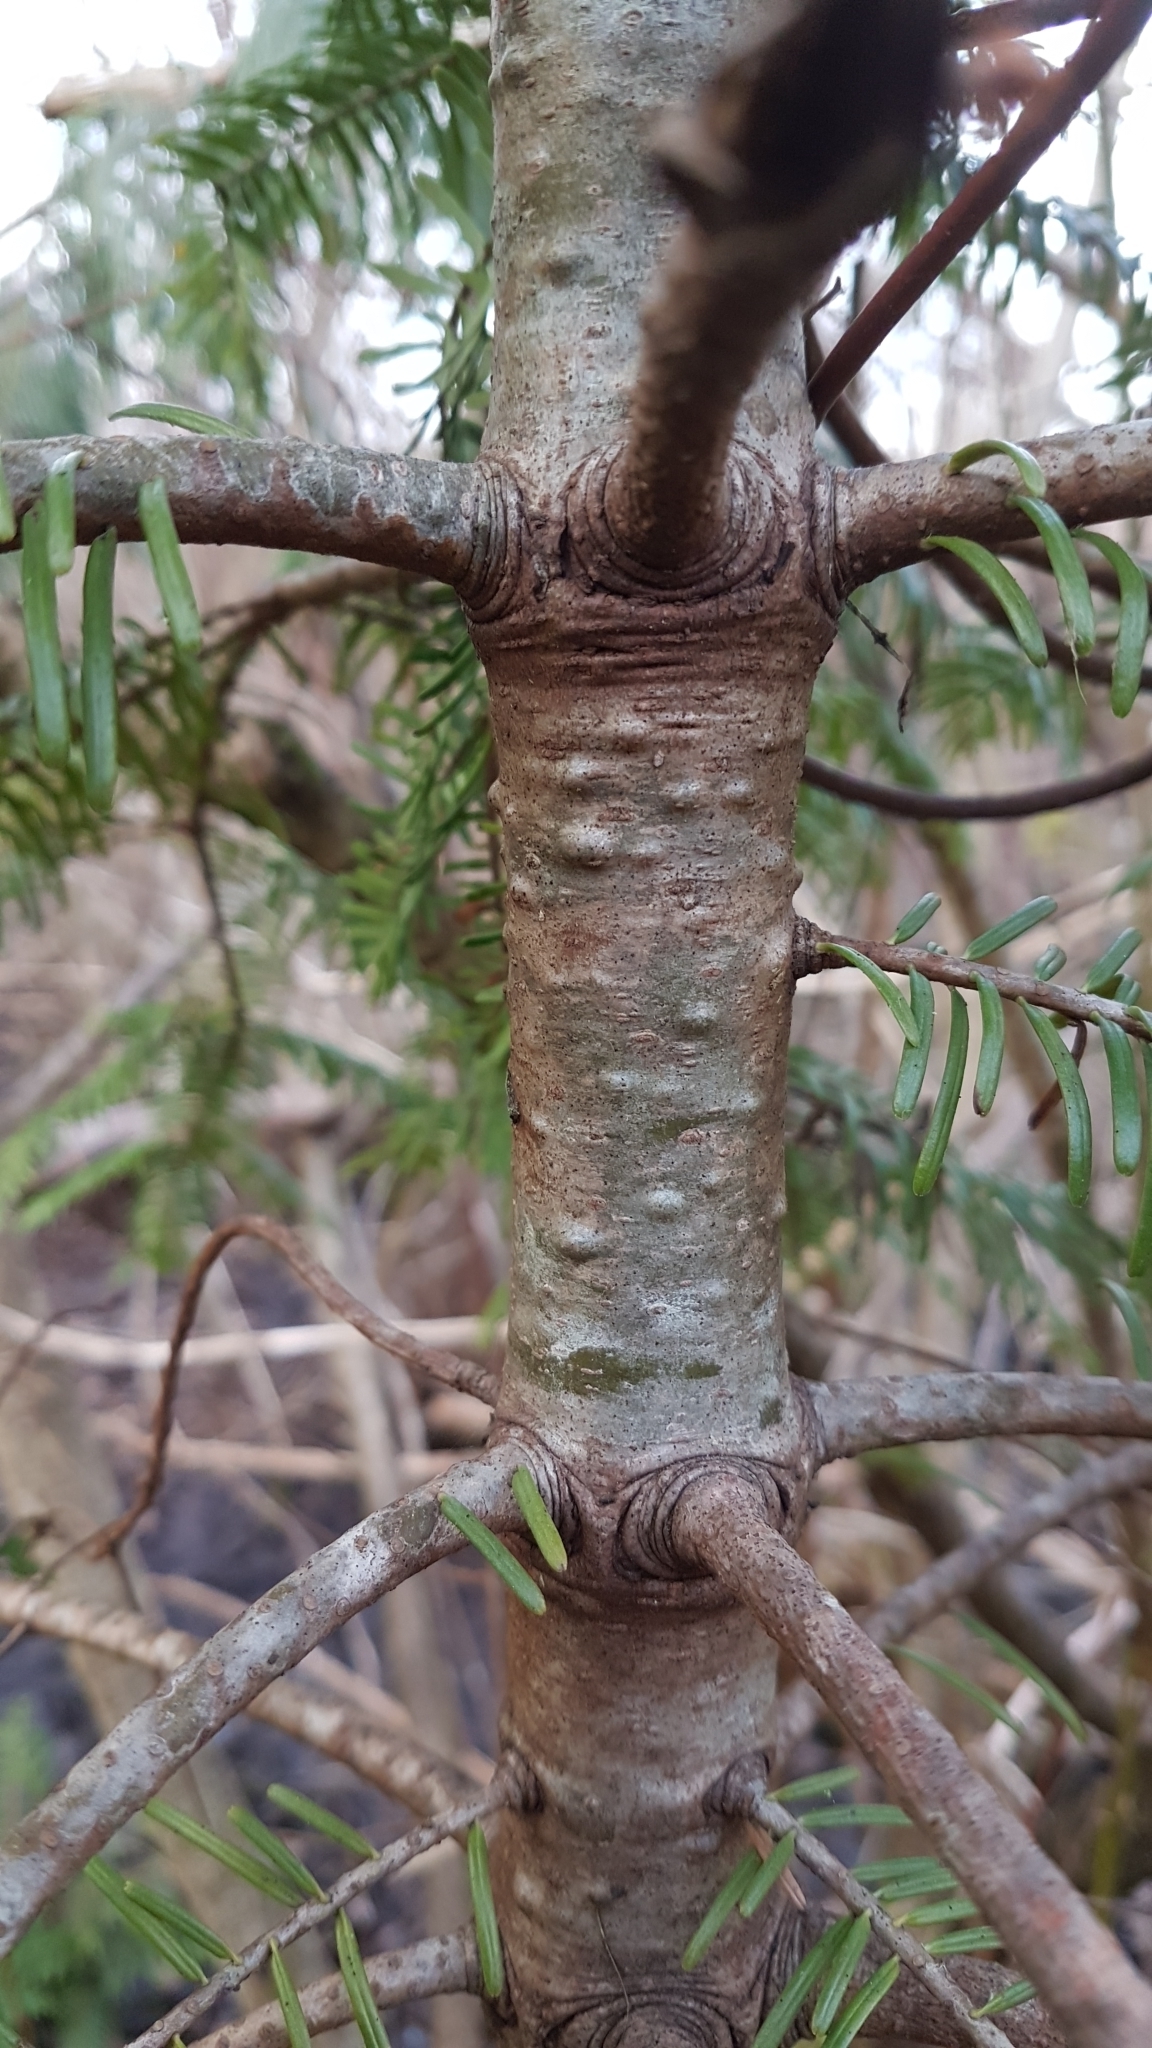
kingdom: Plantae
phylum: Tracheophyta
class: Pinopsida
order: Pinales
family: Pinaceae
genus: Abies
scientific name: Abies grandis
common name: Giant fir
